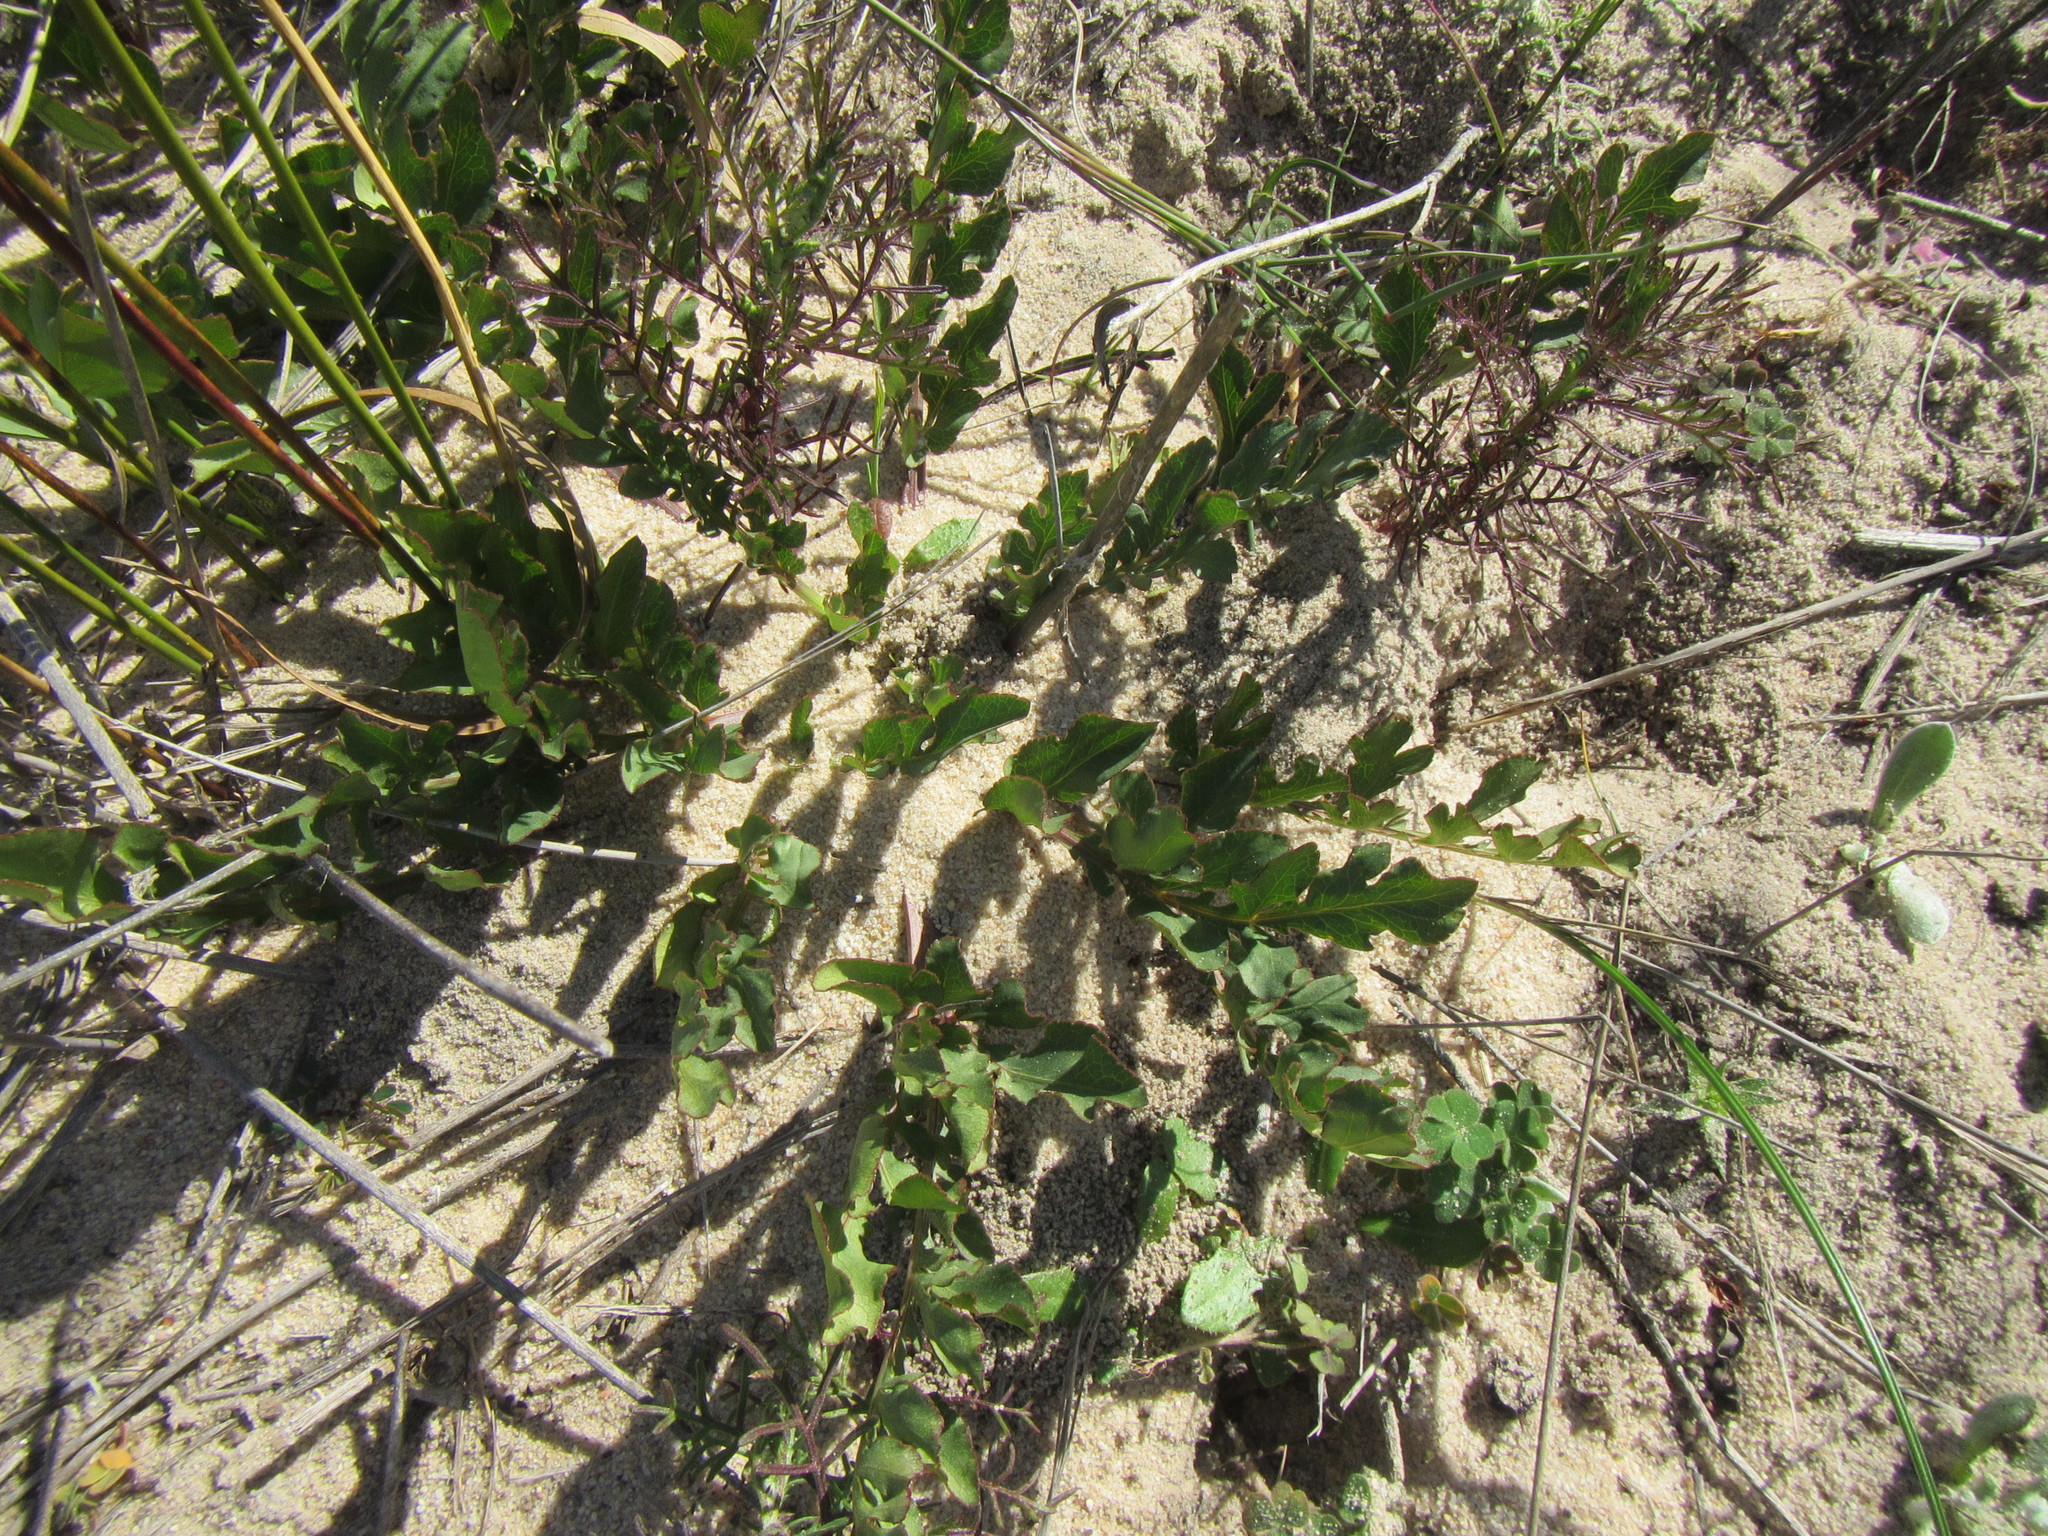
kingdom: Plantae
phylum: Tracheophyta
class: Magnoliopsida
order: Apiales
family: Apiaceae
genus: Lichtensteinia
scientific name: Lichtensteinia obscura
